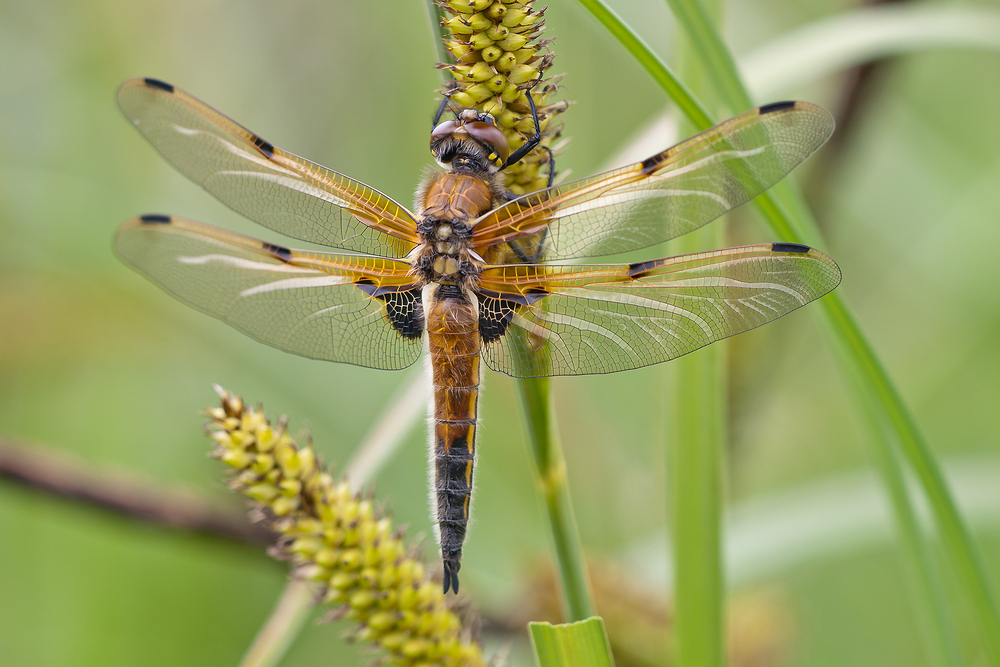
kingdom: Animalia
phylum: Arthropoda
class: Insecta
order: Odonata
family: Libellulidae
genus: Libellula
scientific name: Libellula quadrimaculata
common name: Four-spotted chaser
